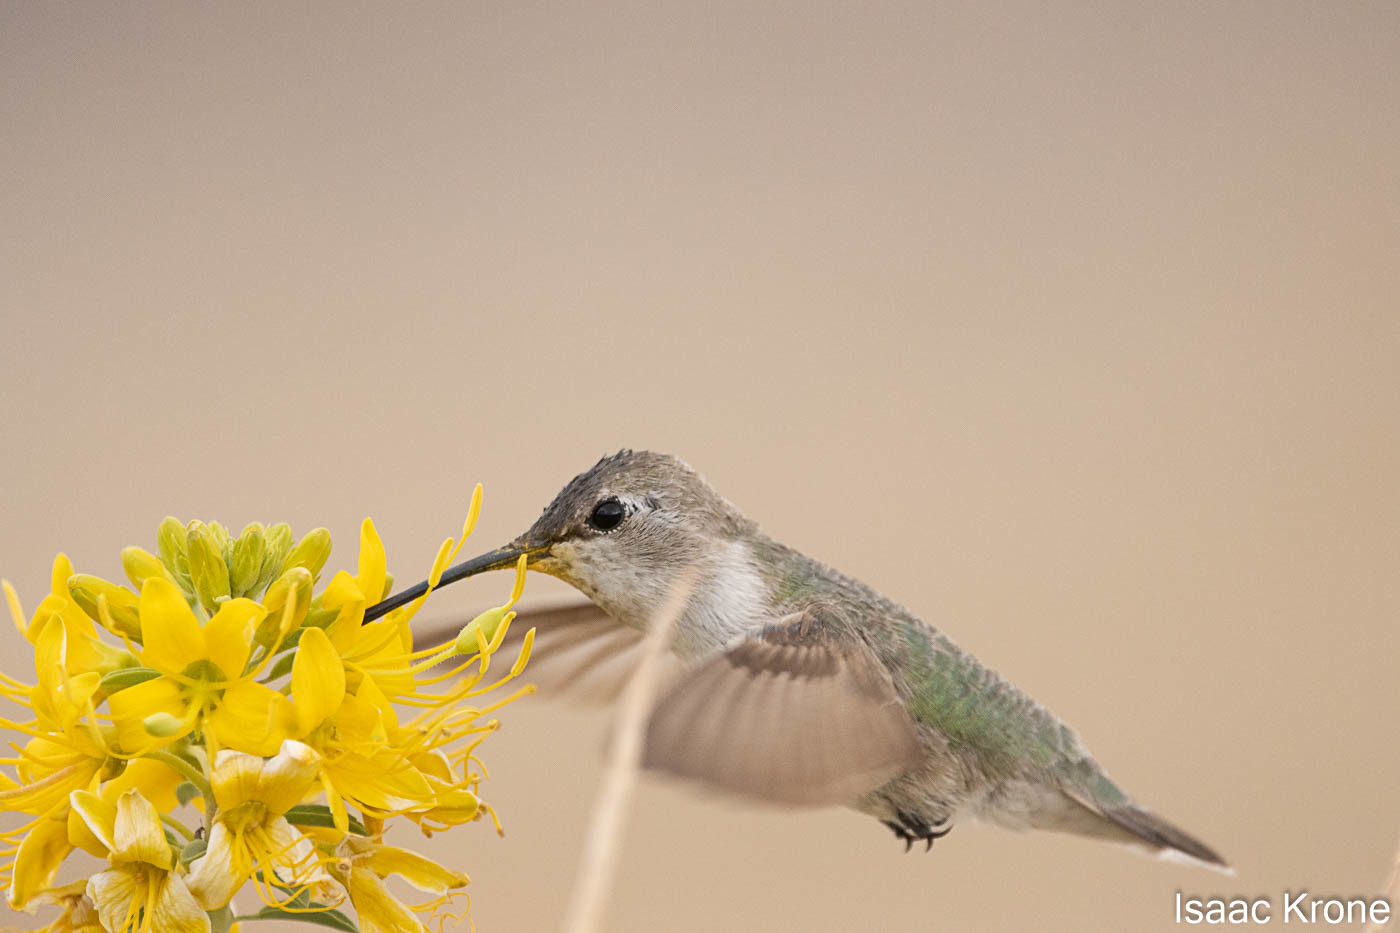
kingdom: Animalia
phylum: Chordata
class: Aves
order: Apodiformes
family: Trochilidae
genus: Calypte
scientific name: Calypte costae
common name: Costa's hummingbird
